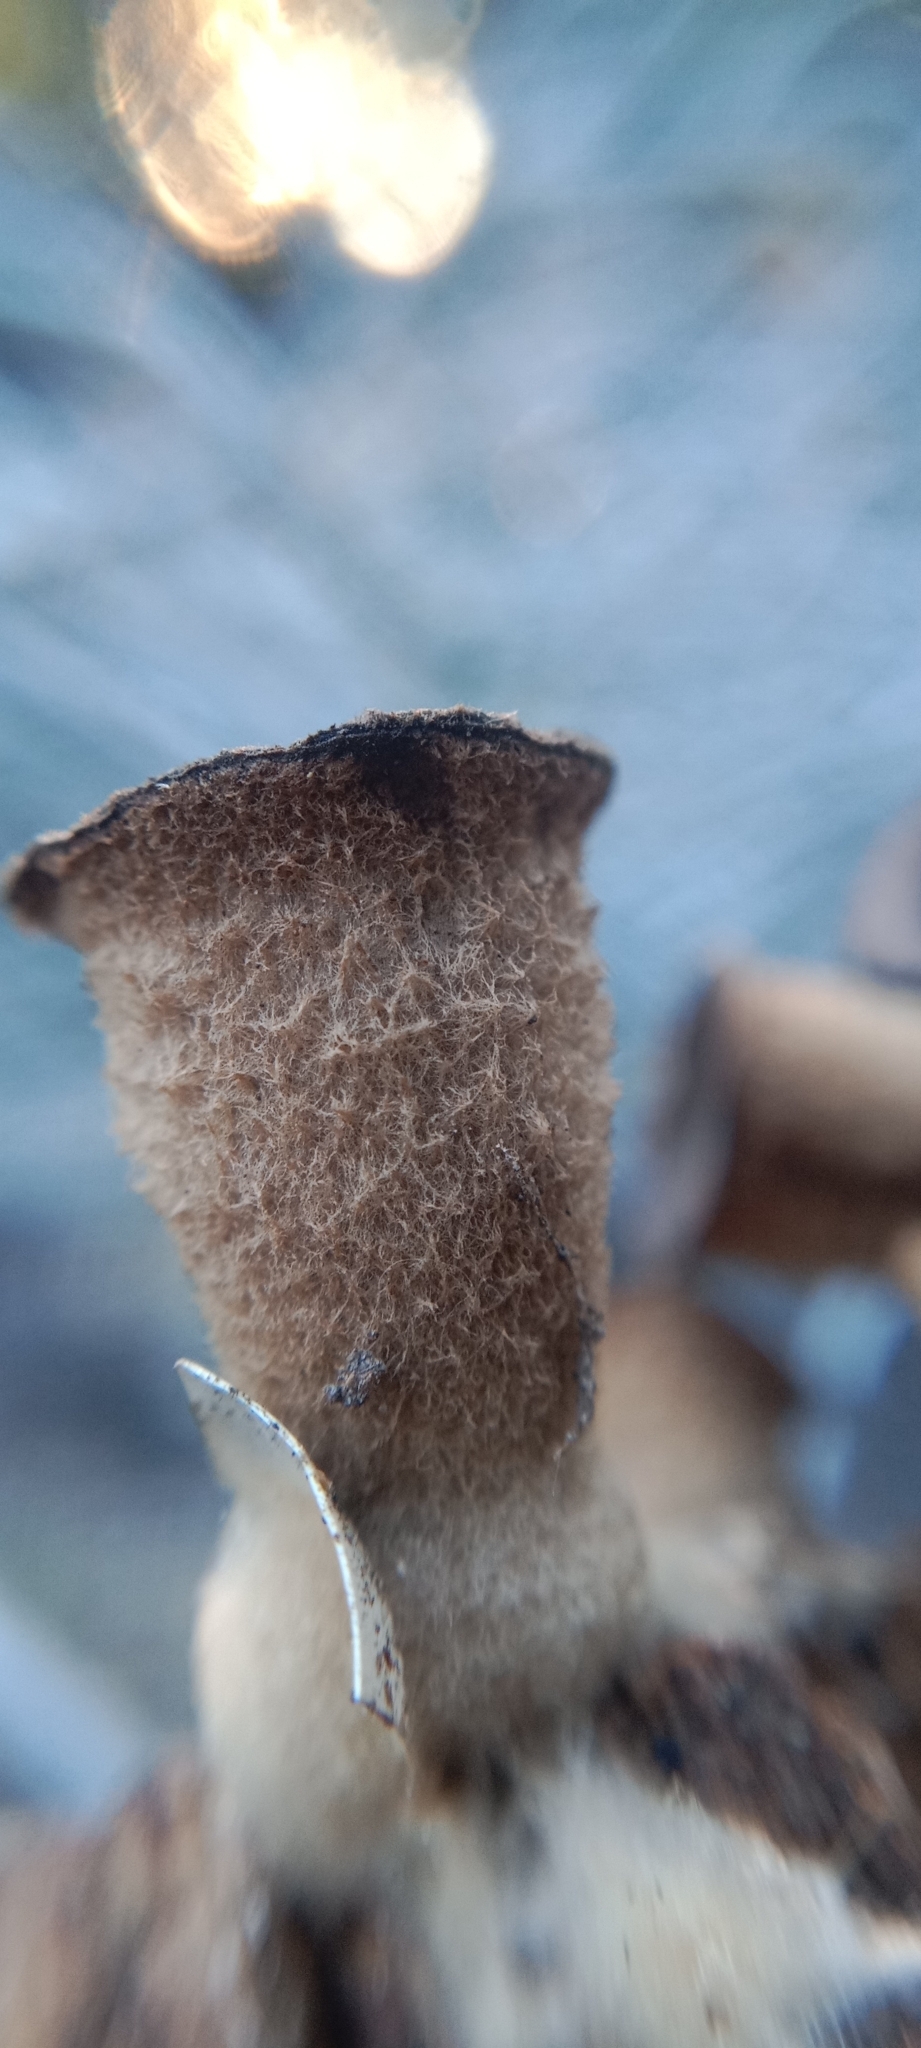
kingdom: Fungi
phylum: Basidiomycota
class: Agaricomycetes
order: Agaricales
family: Agaricaceae
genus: Cyathus
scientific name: Cyathus olla
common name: Field bird's nest
